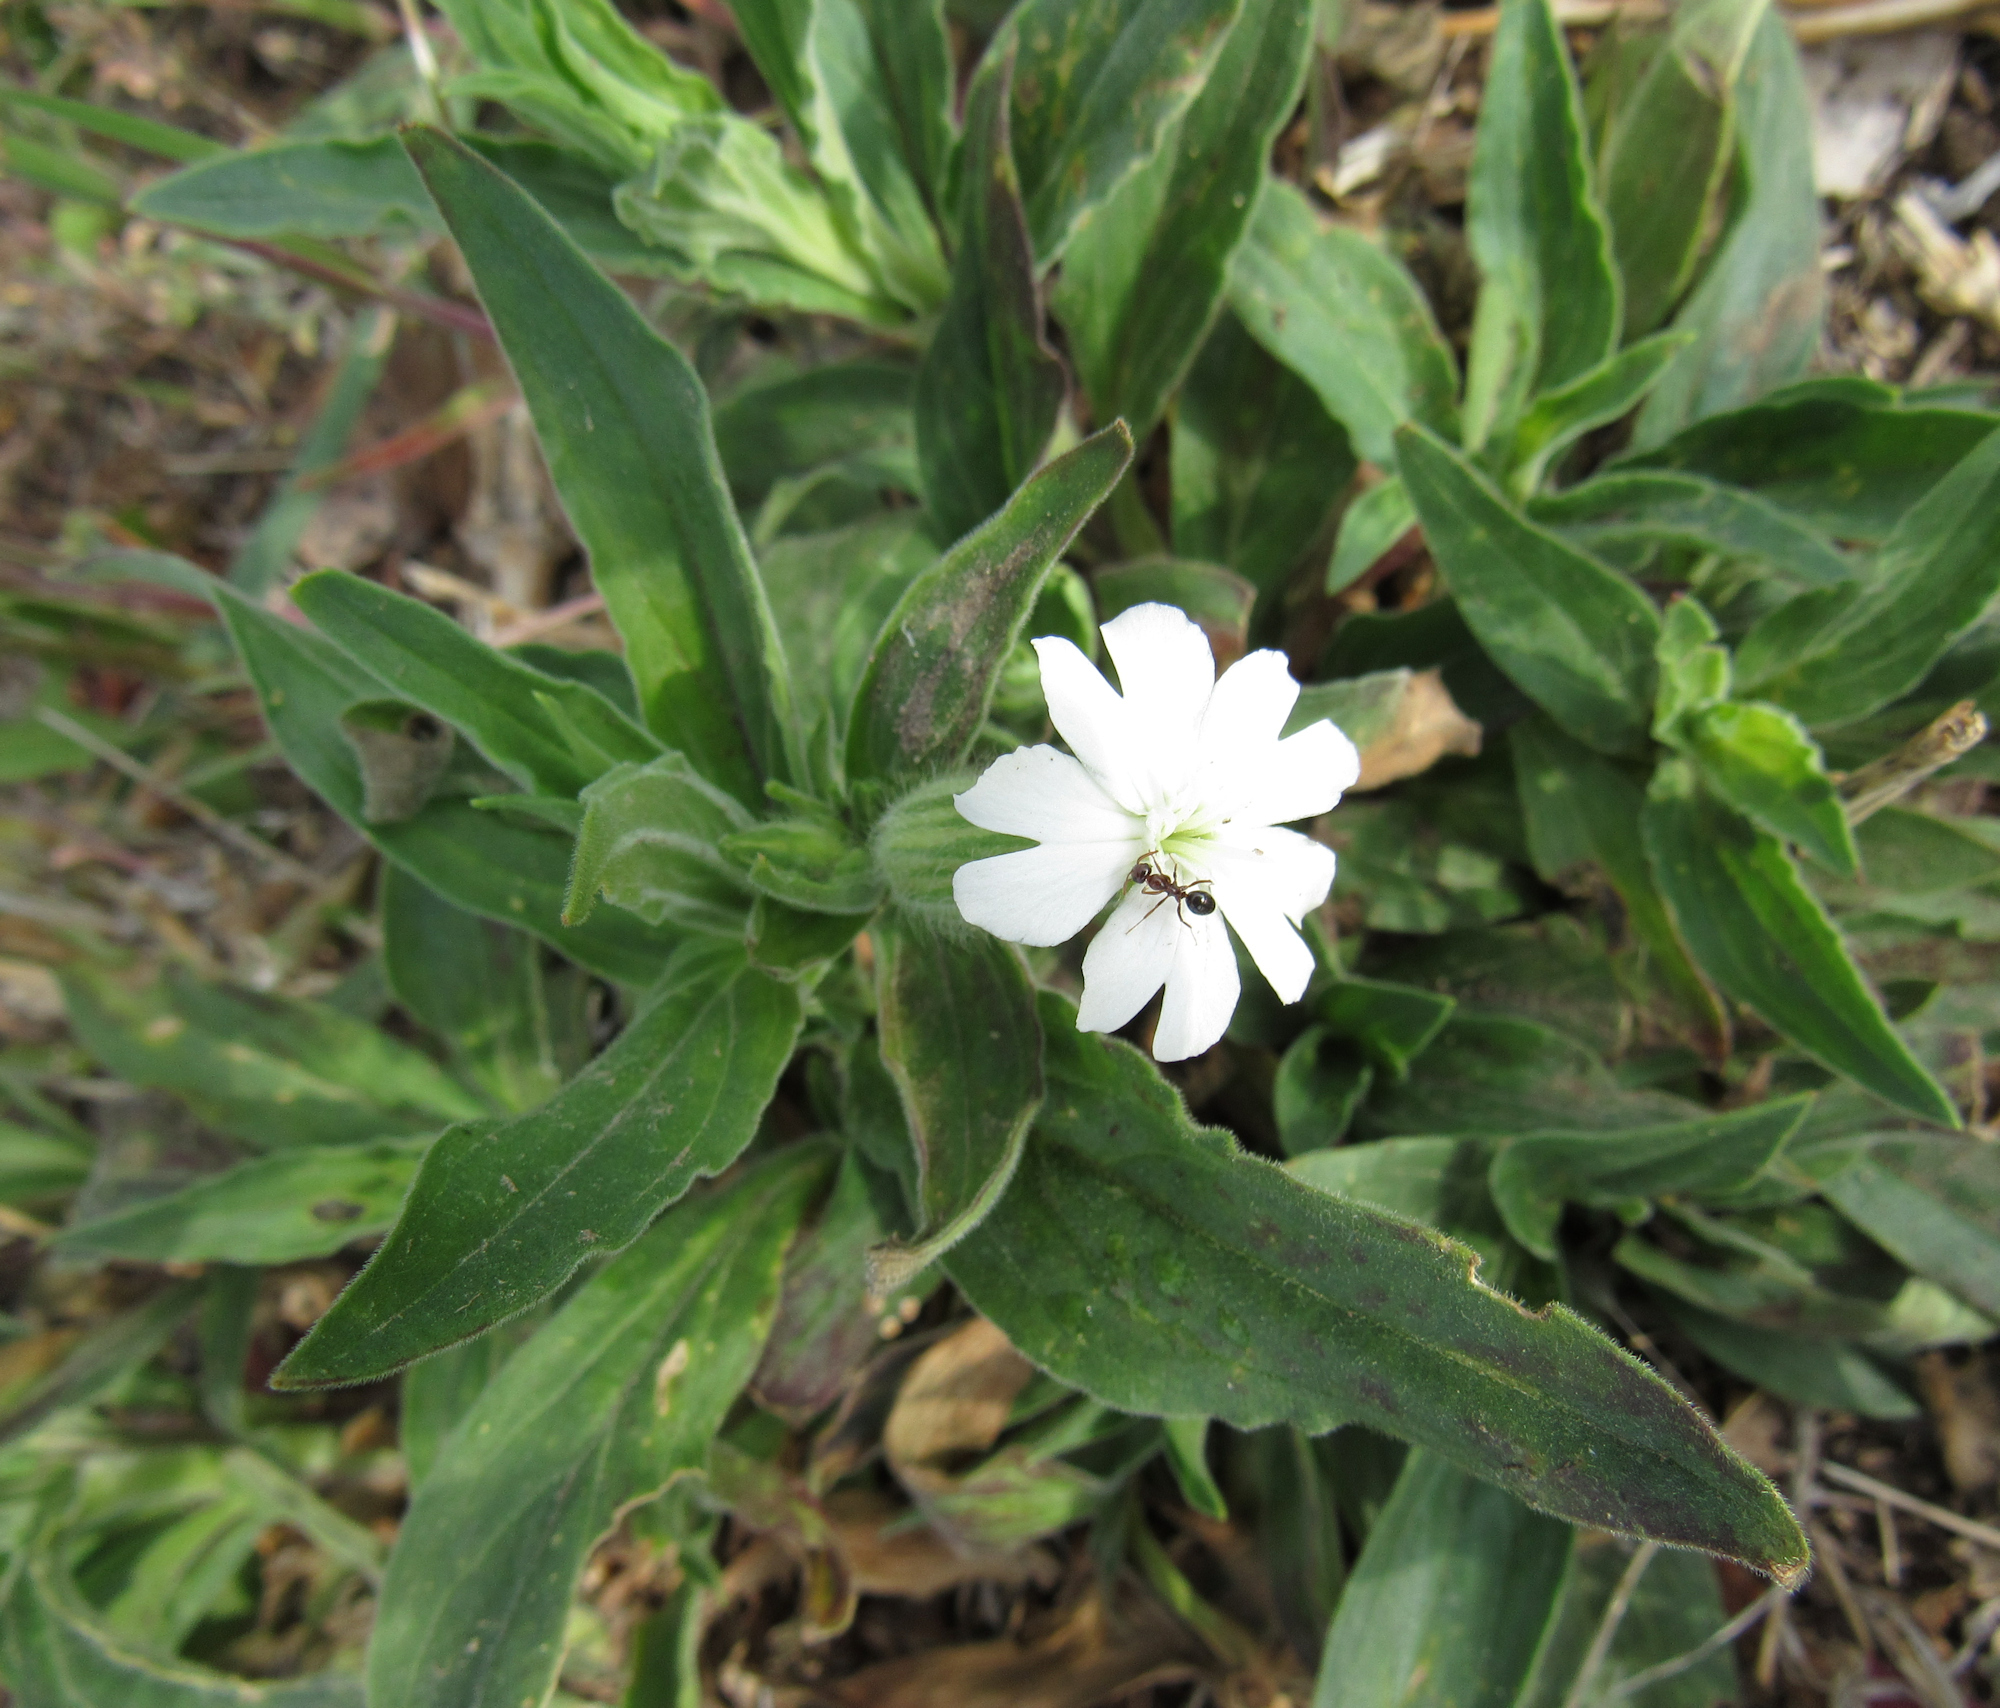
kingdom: Plantae
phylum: Tracheophyta
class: Magnoliopsida
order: Caryophyllales
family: Caryophyllaceae
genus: Silene
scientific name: Silene latifolia
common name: White campion
